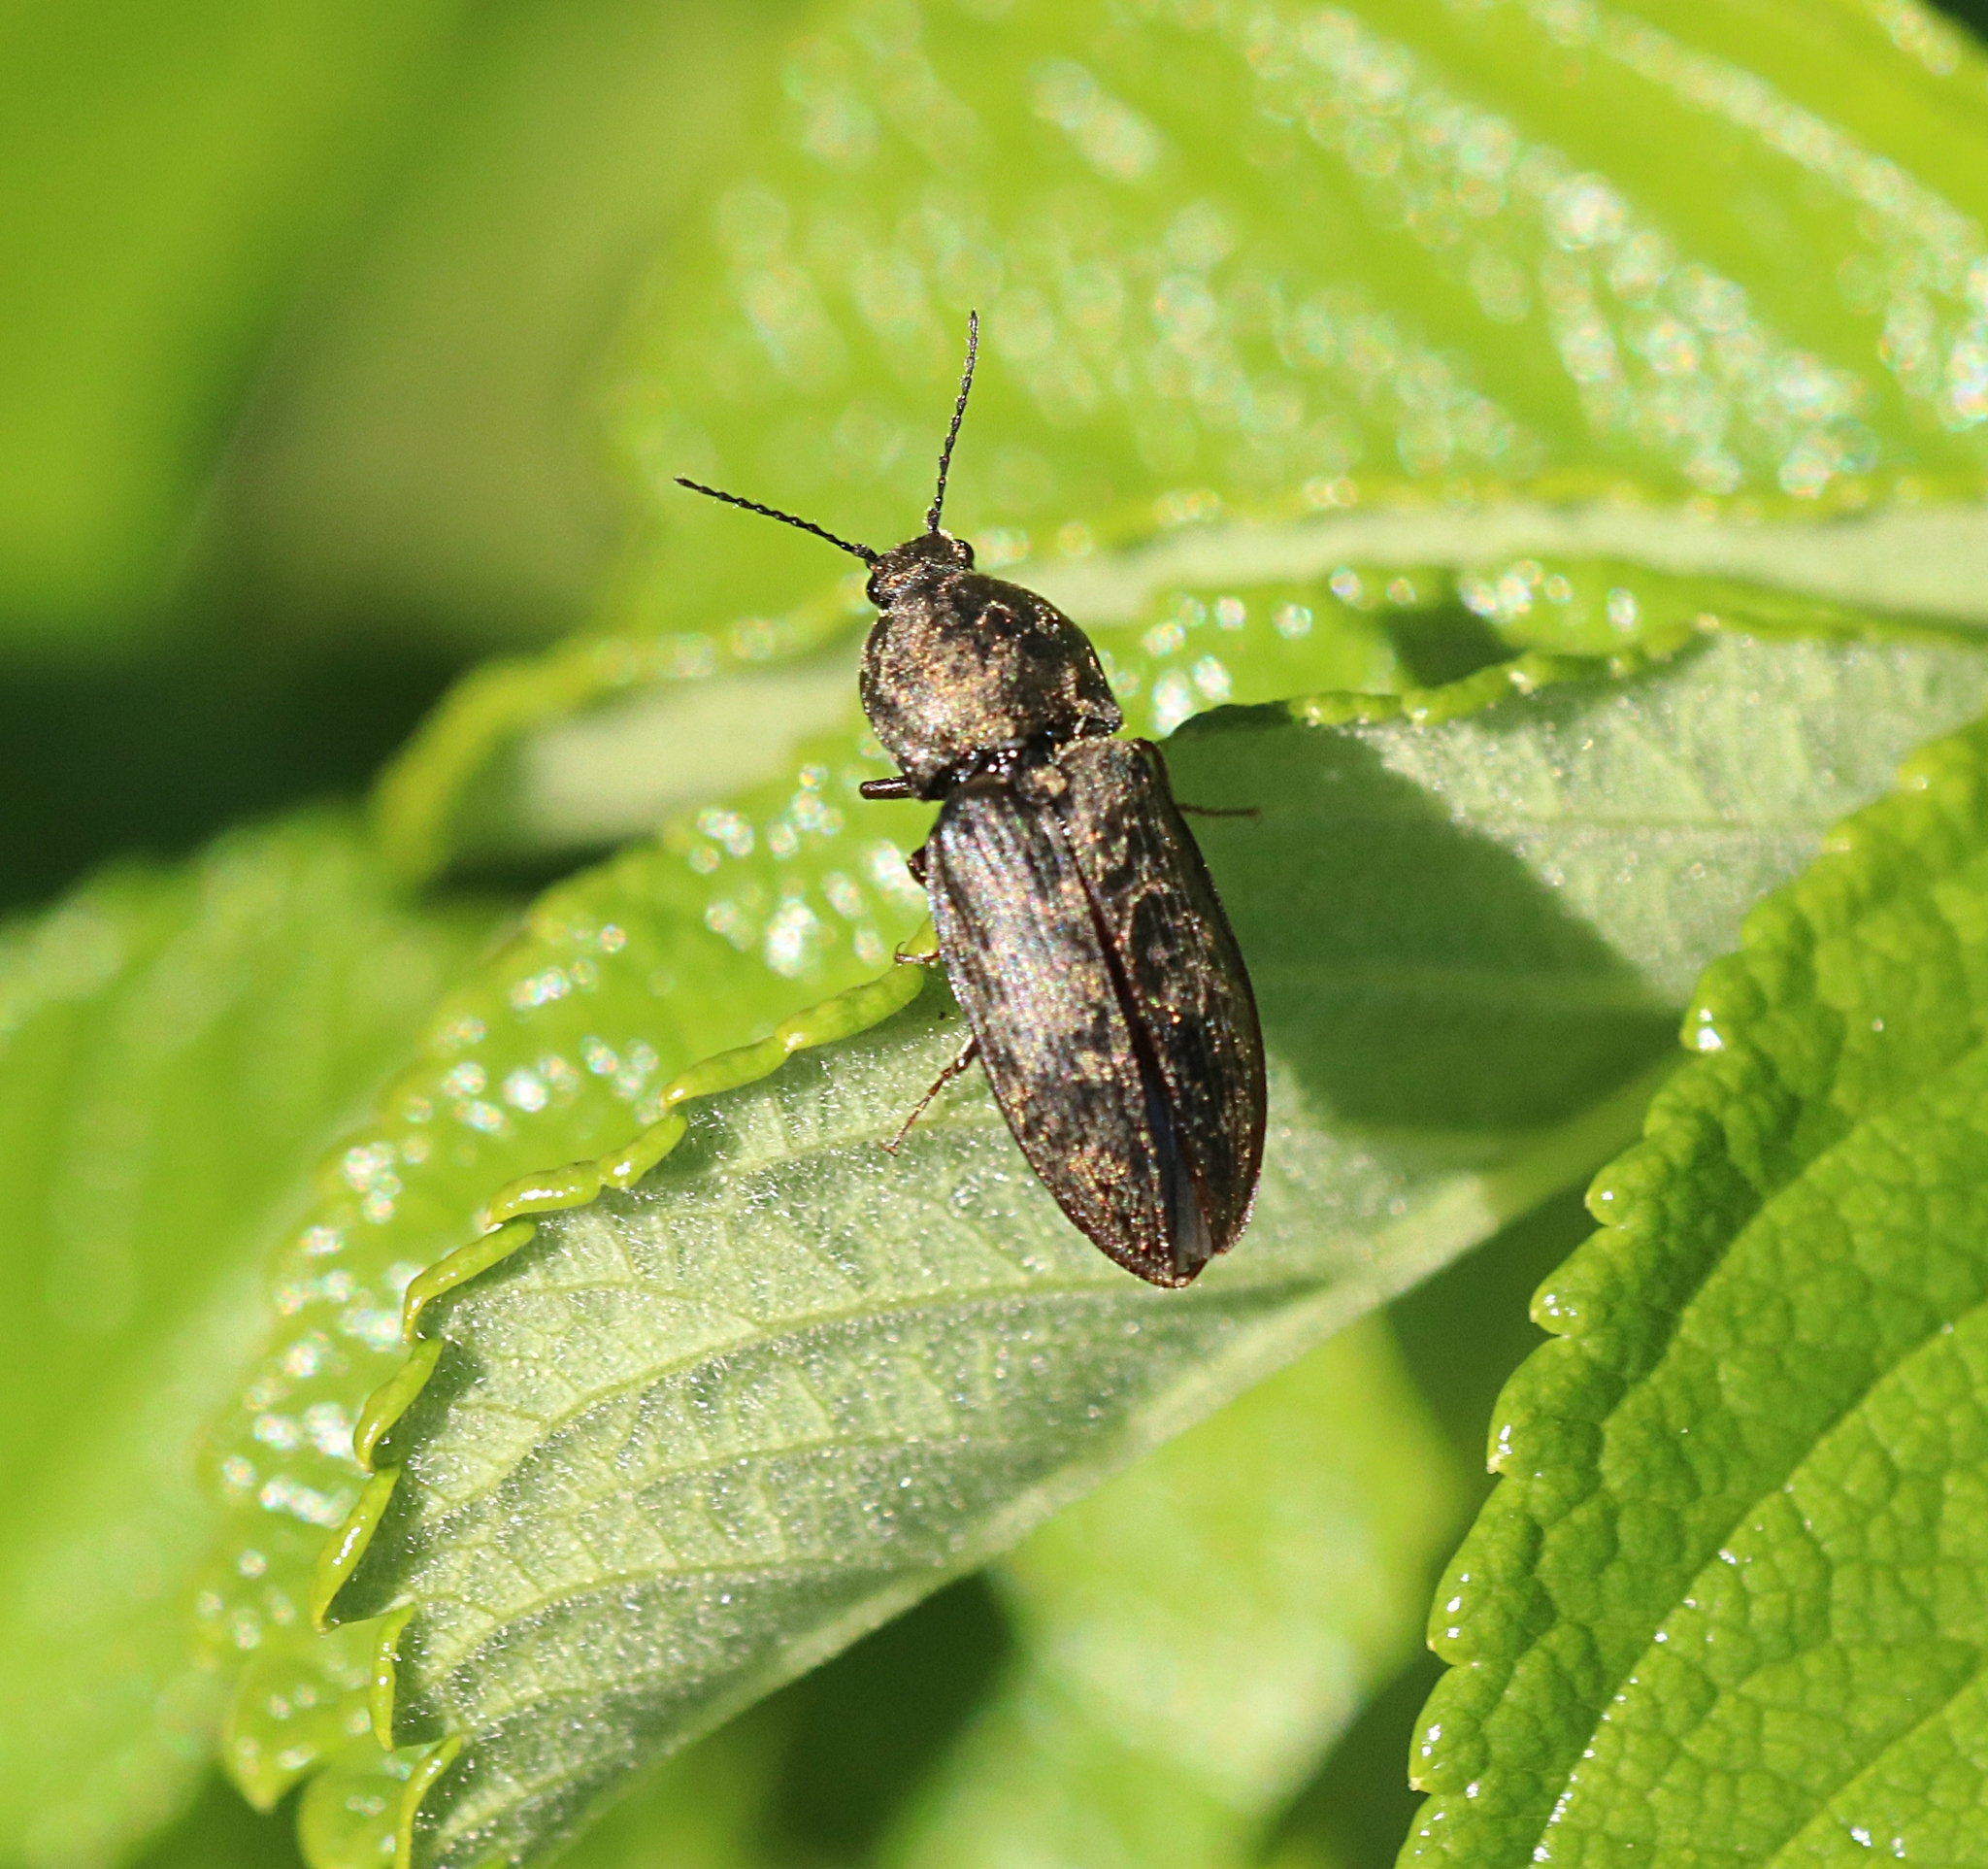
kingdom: Animalia
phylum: Arthropoda
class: Insecta
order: Coleoptera
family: Elateridae
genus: Prosternon
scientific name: Prosternon tessellatum
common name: Chequered click beetle
